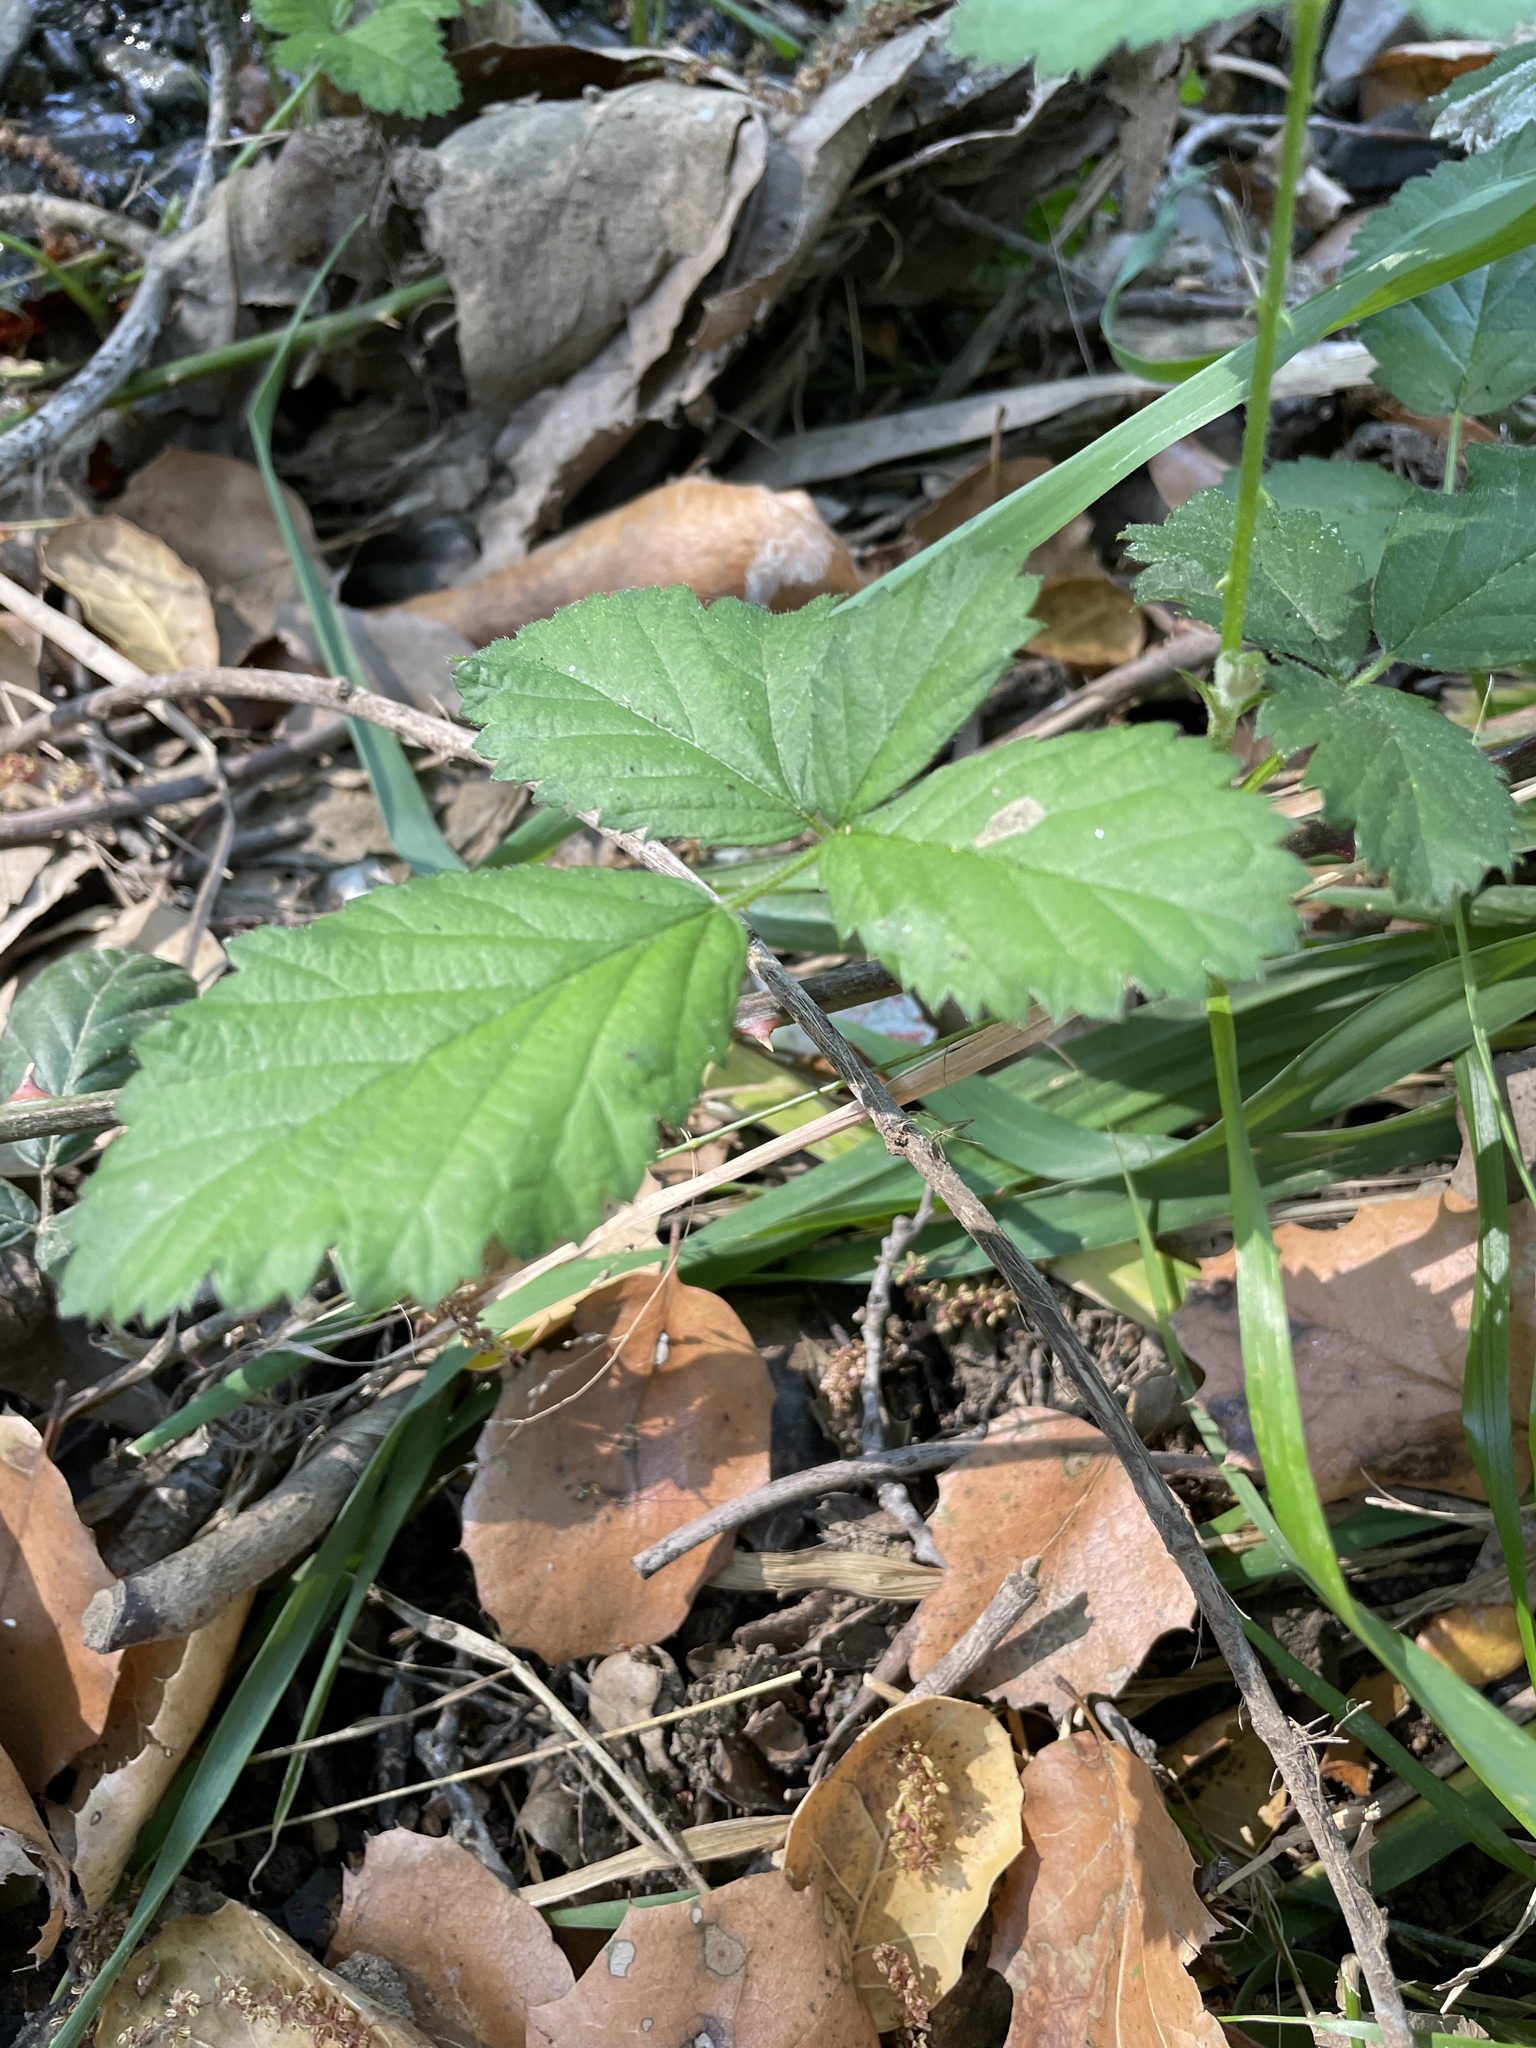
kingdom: Plantae
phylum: Tracheophyta
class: Magnoliopsida
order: Rosales
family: Rosaceae
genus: Rubus
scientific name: Rubus armeniacus
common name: Himalayan blackberry
